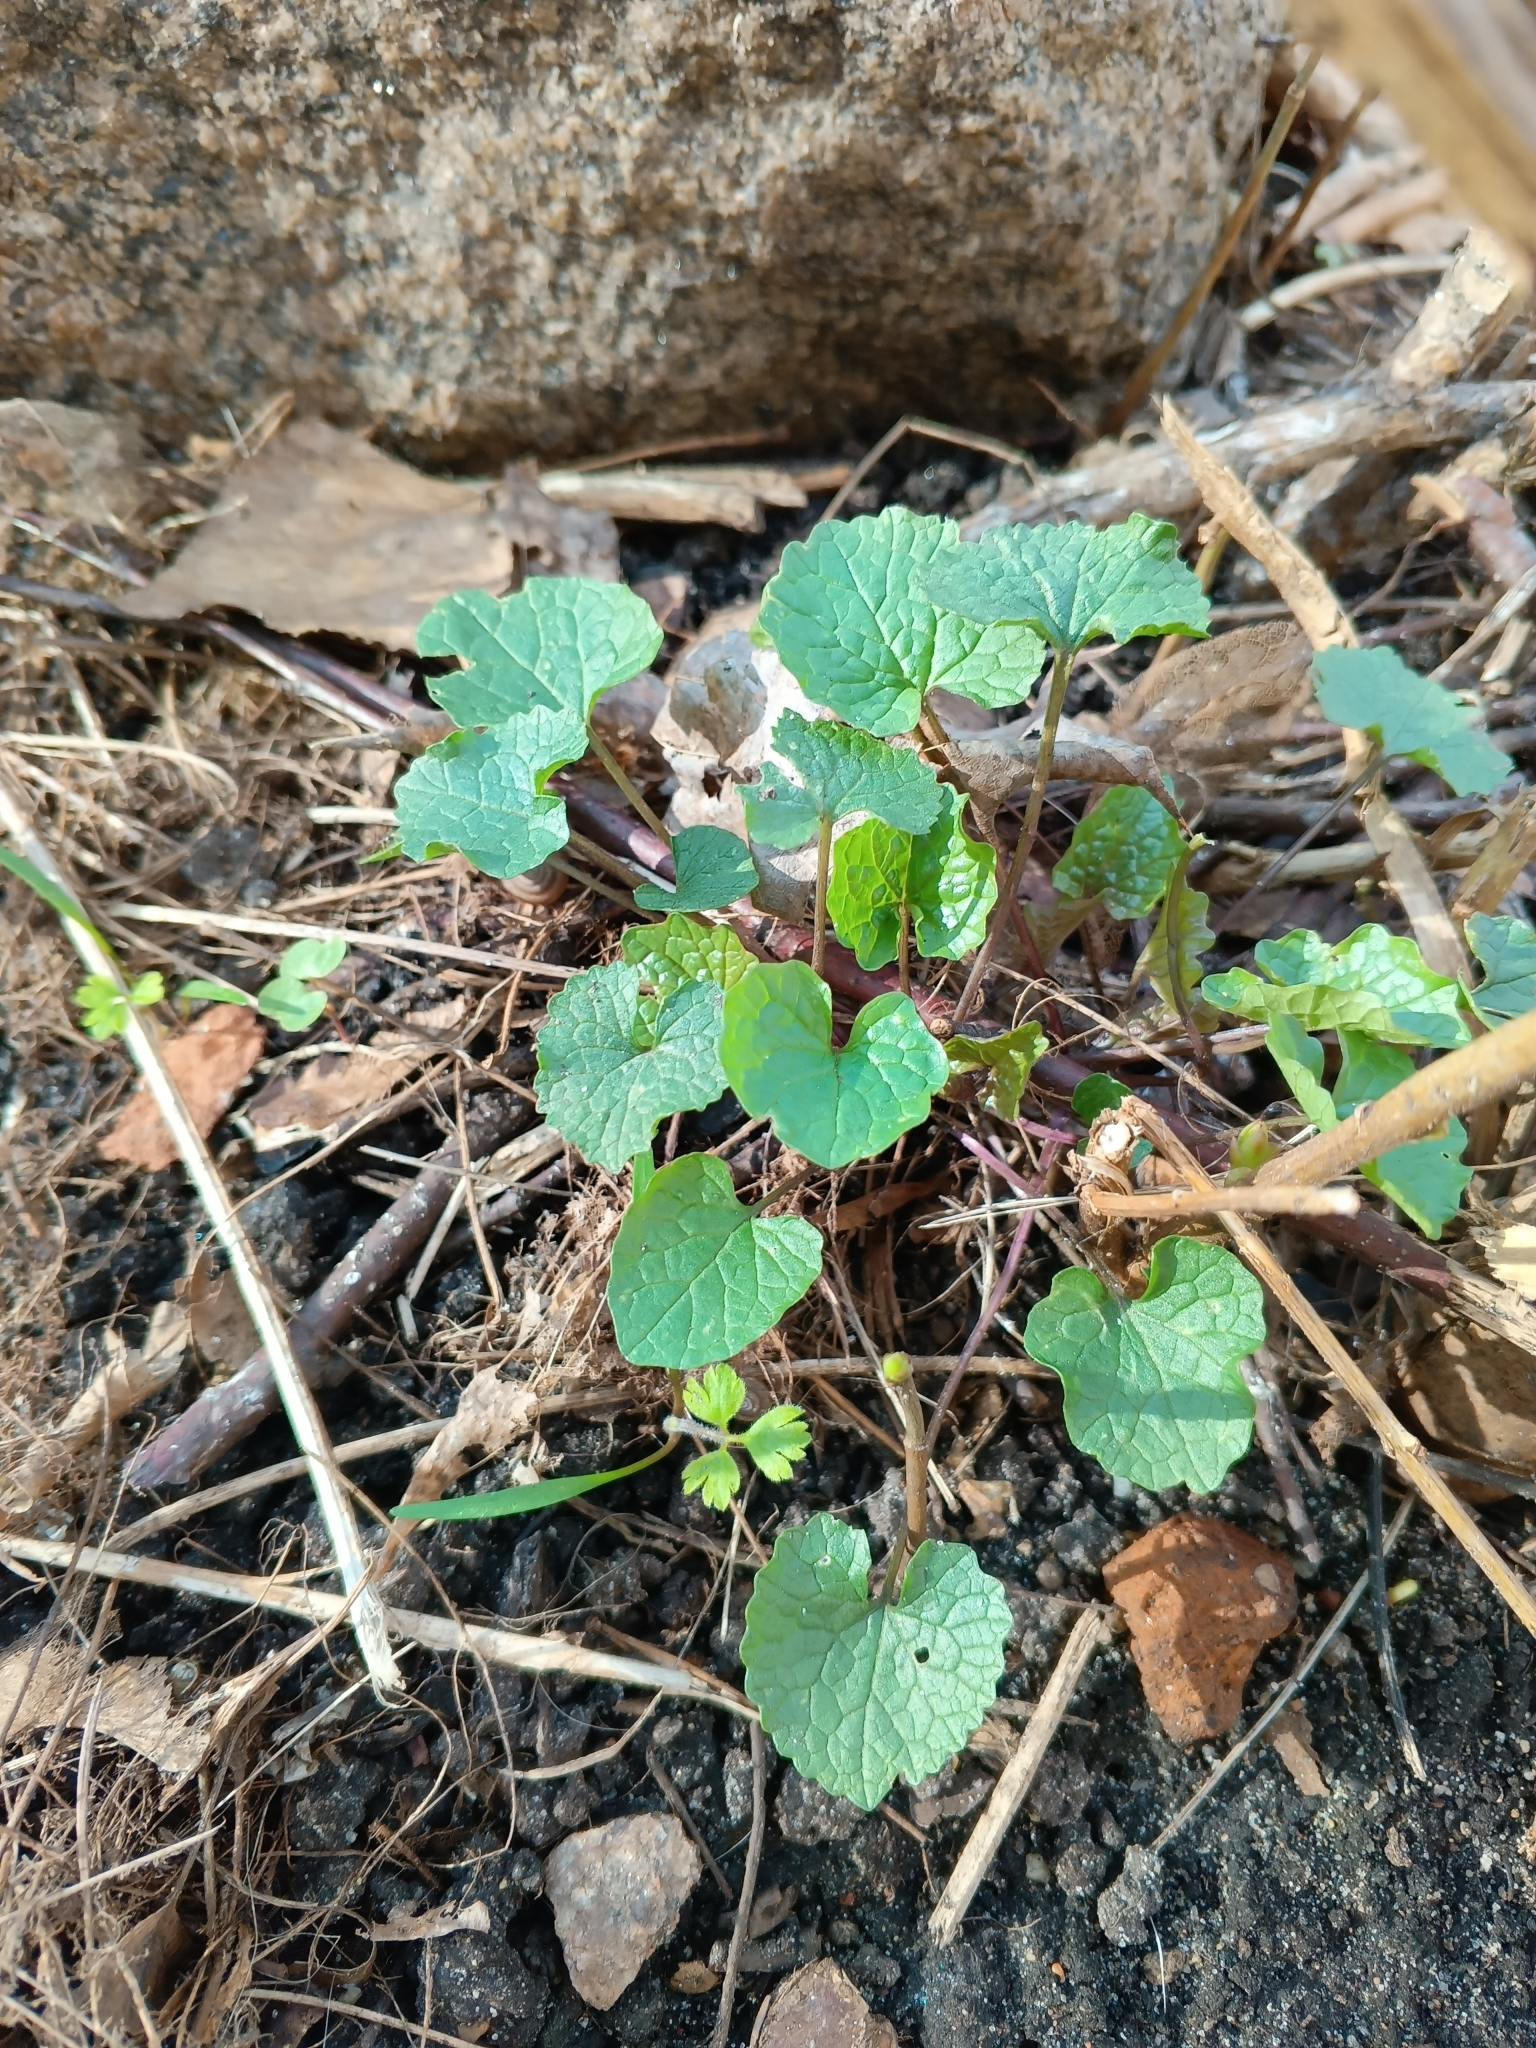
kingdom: Plantae
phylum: Tracheophyta
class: Magnoliopsida
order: Brassicales
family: Brassicaceae
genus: Alliaria
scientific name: Alliaria petiolata
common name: Garlic mustard
